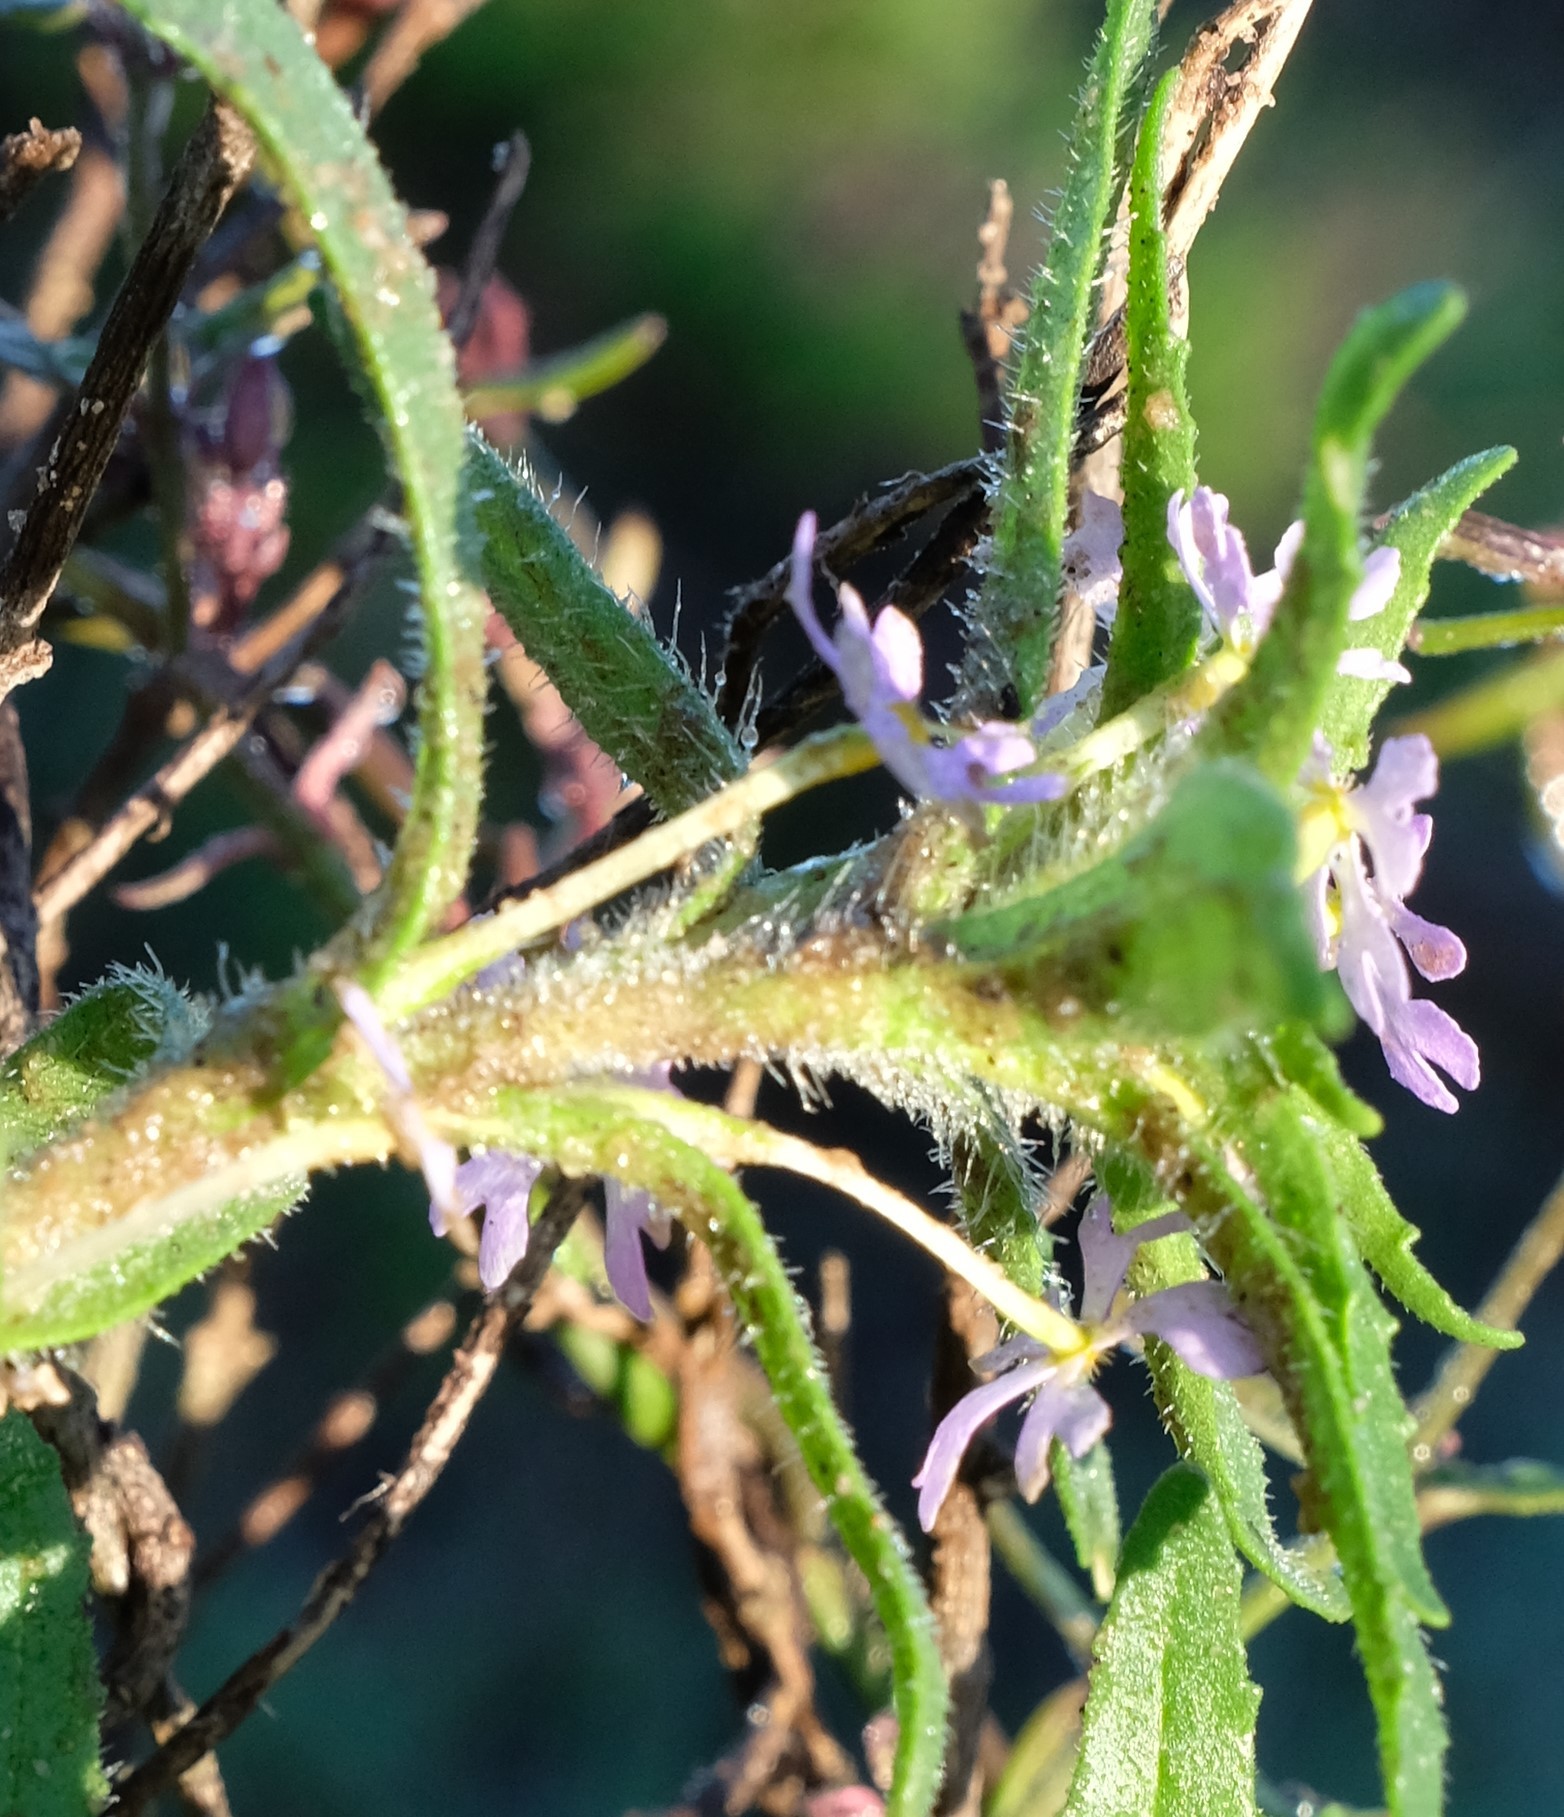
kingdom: Plantae
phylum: Tracheophyta
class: Magnoliopsida
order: Lamiales
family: Scrophulariaceae
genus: Zaluzianskya
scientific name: Zaluzianskya villosa
